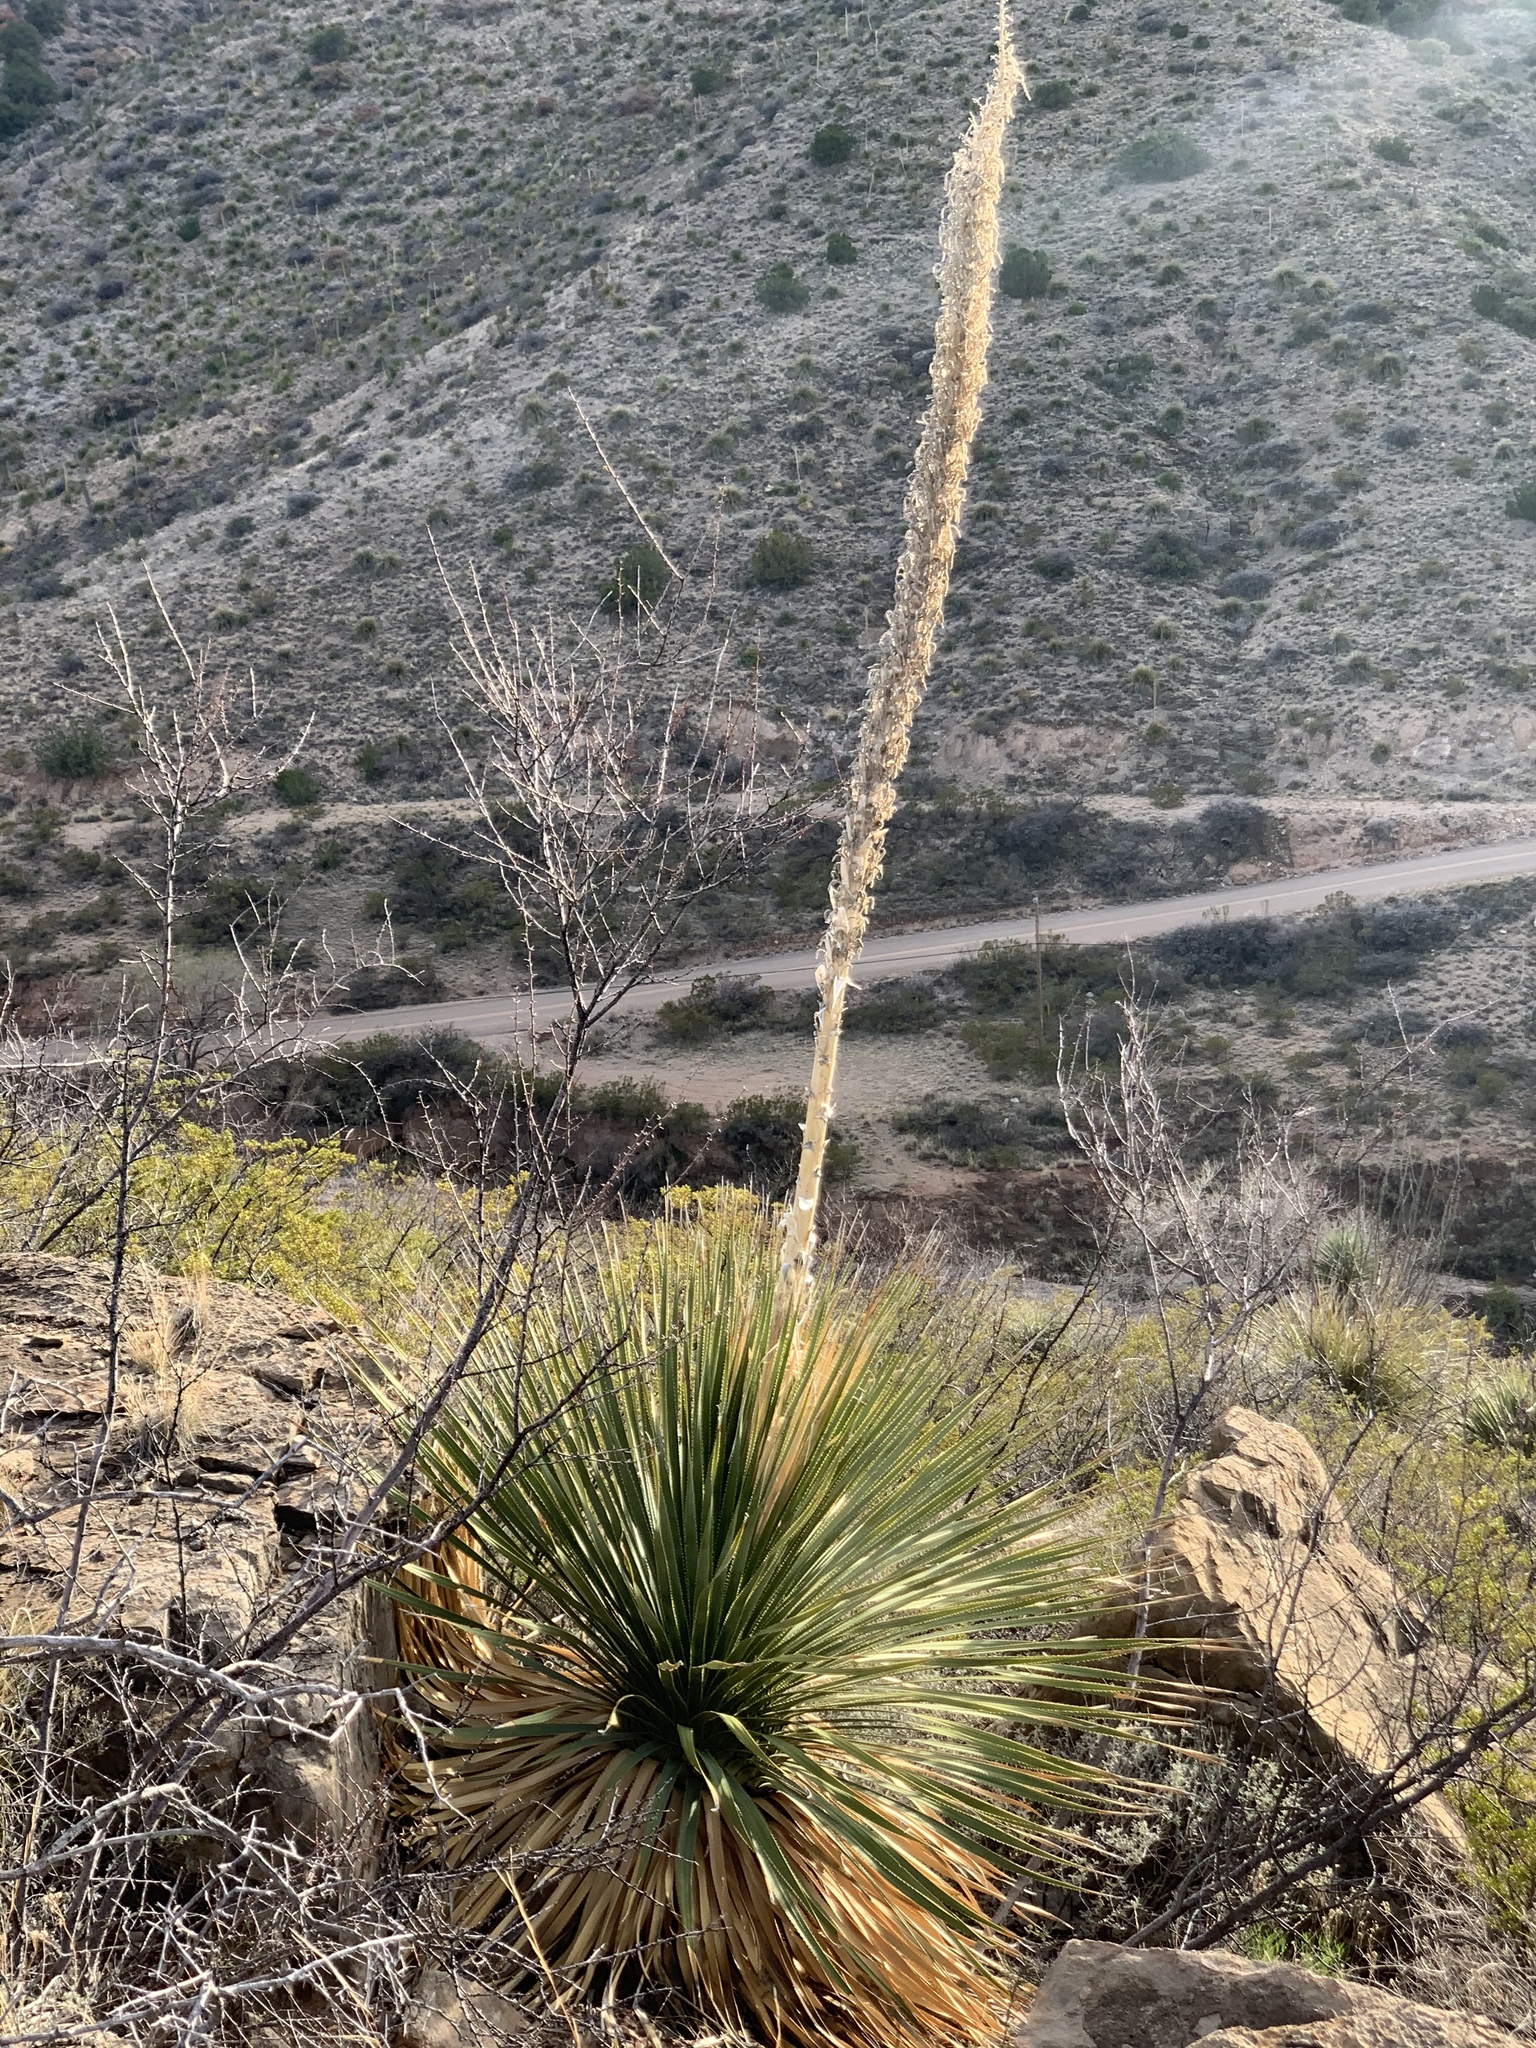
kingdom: Plantae
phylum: Tracheophyta
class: Liliopsida
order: Asparagales
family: Asparagaceae
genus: Dasylirion
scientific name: Dasylirion wheeleri
